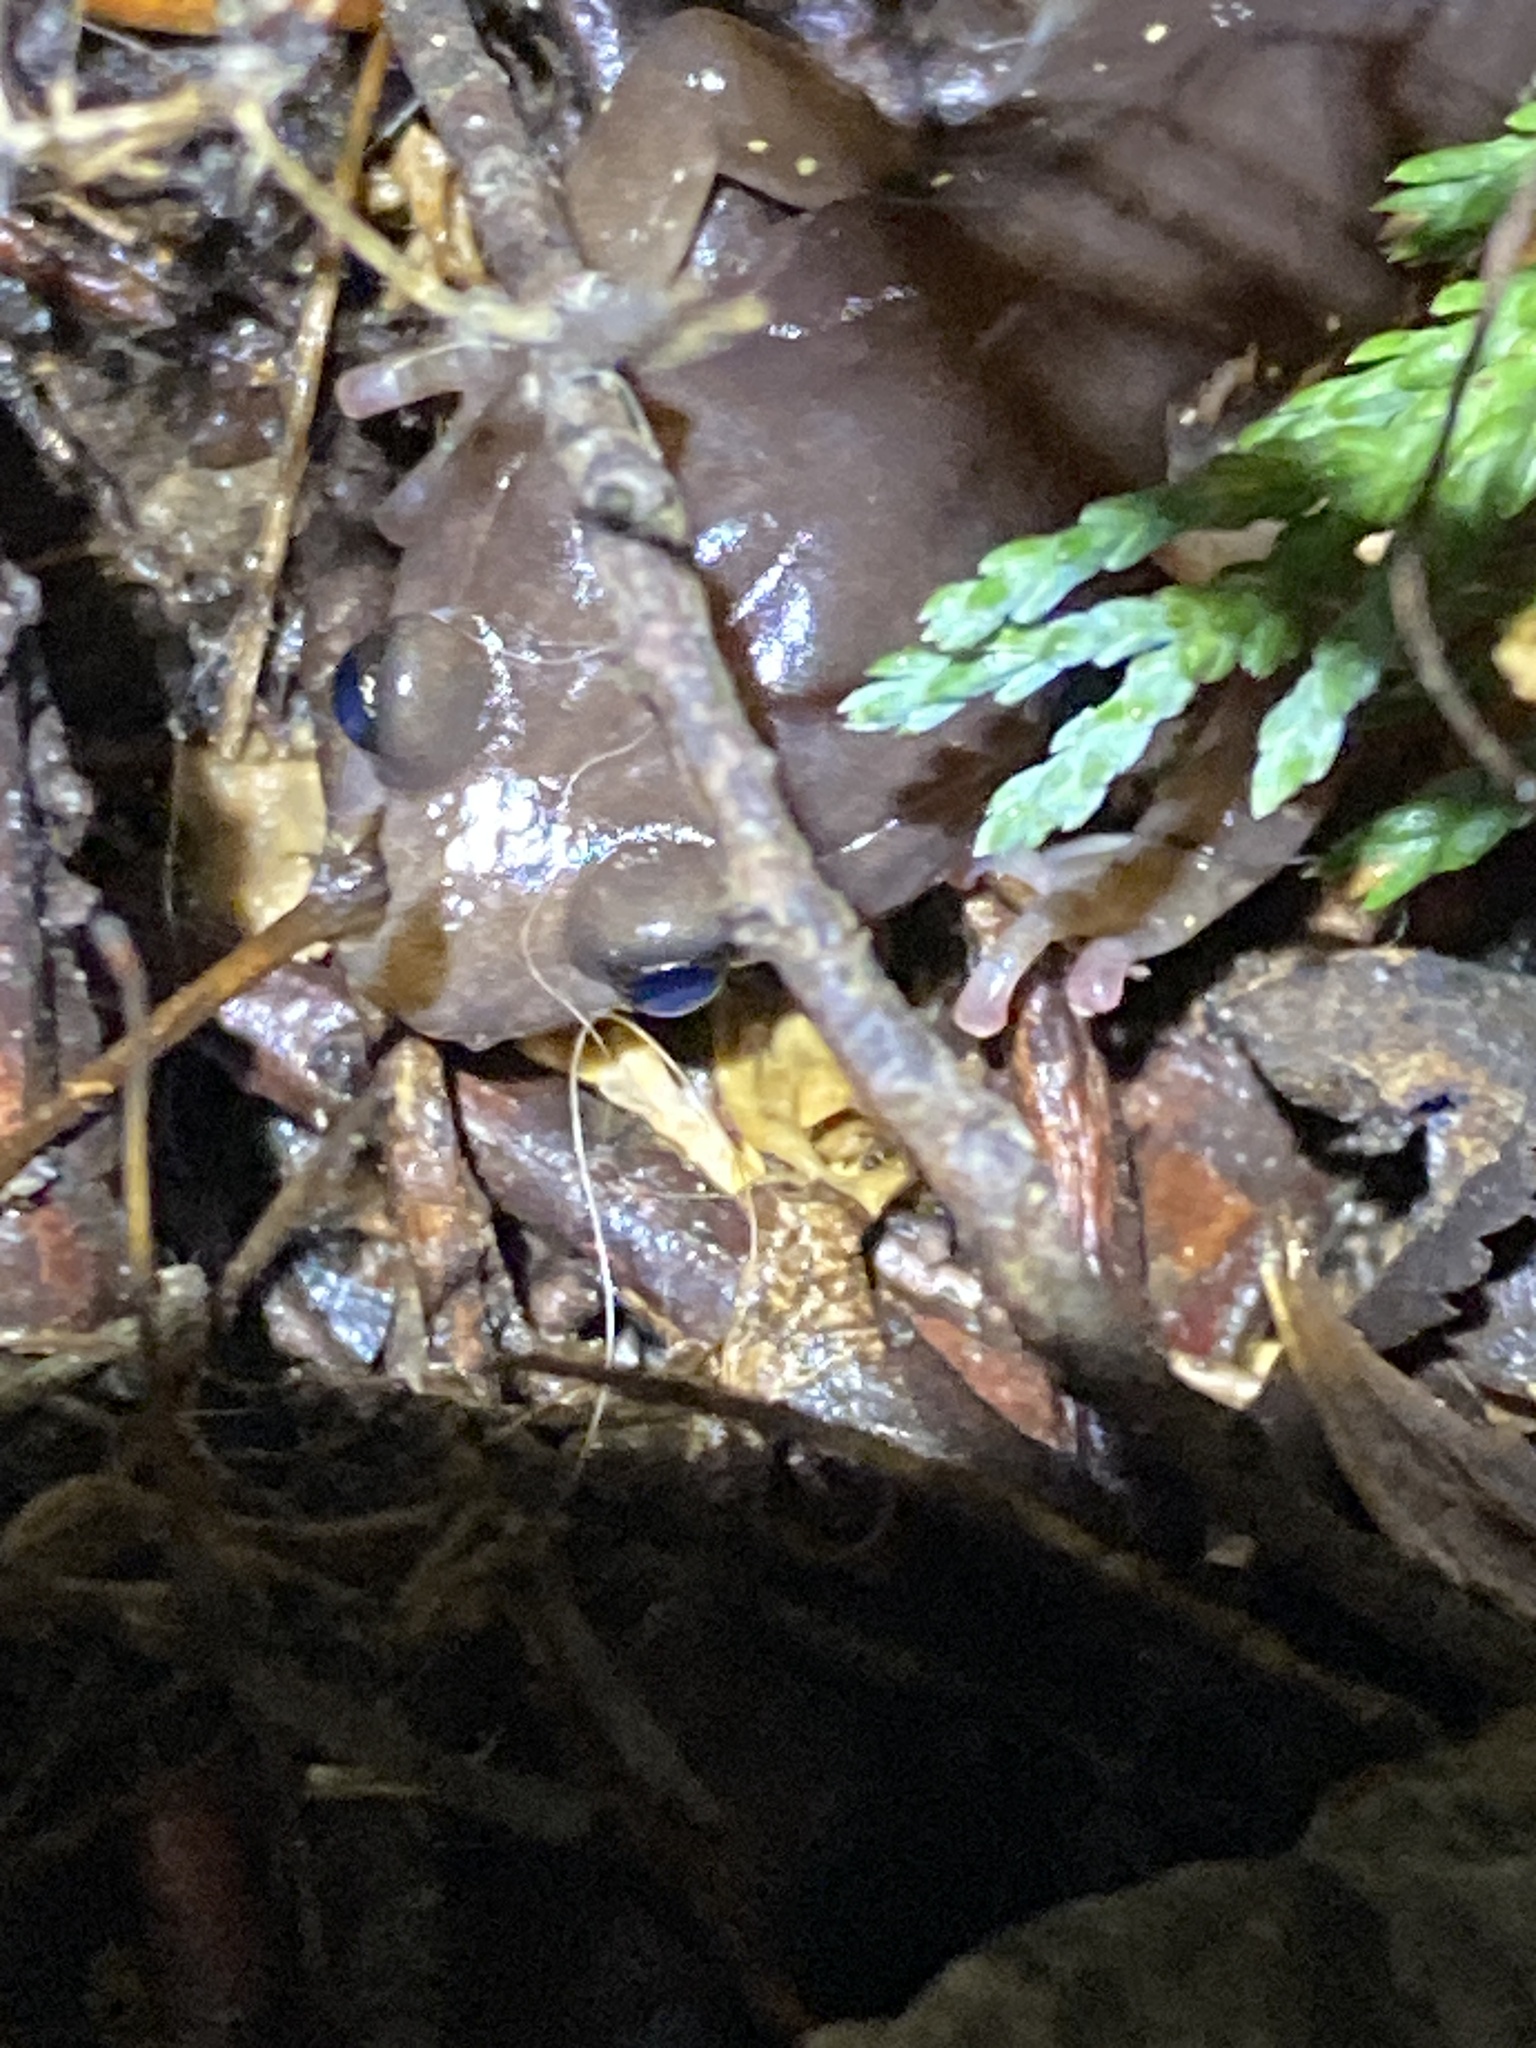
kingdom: Animalia
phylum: Chordata
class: Amphibia
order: Caudata
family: Plethodontidae
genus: Aneides
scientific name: Aneides lugubris
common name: Arboreal salamander
